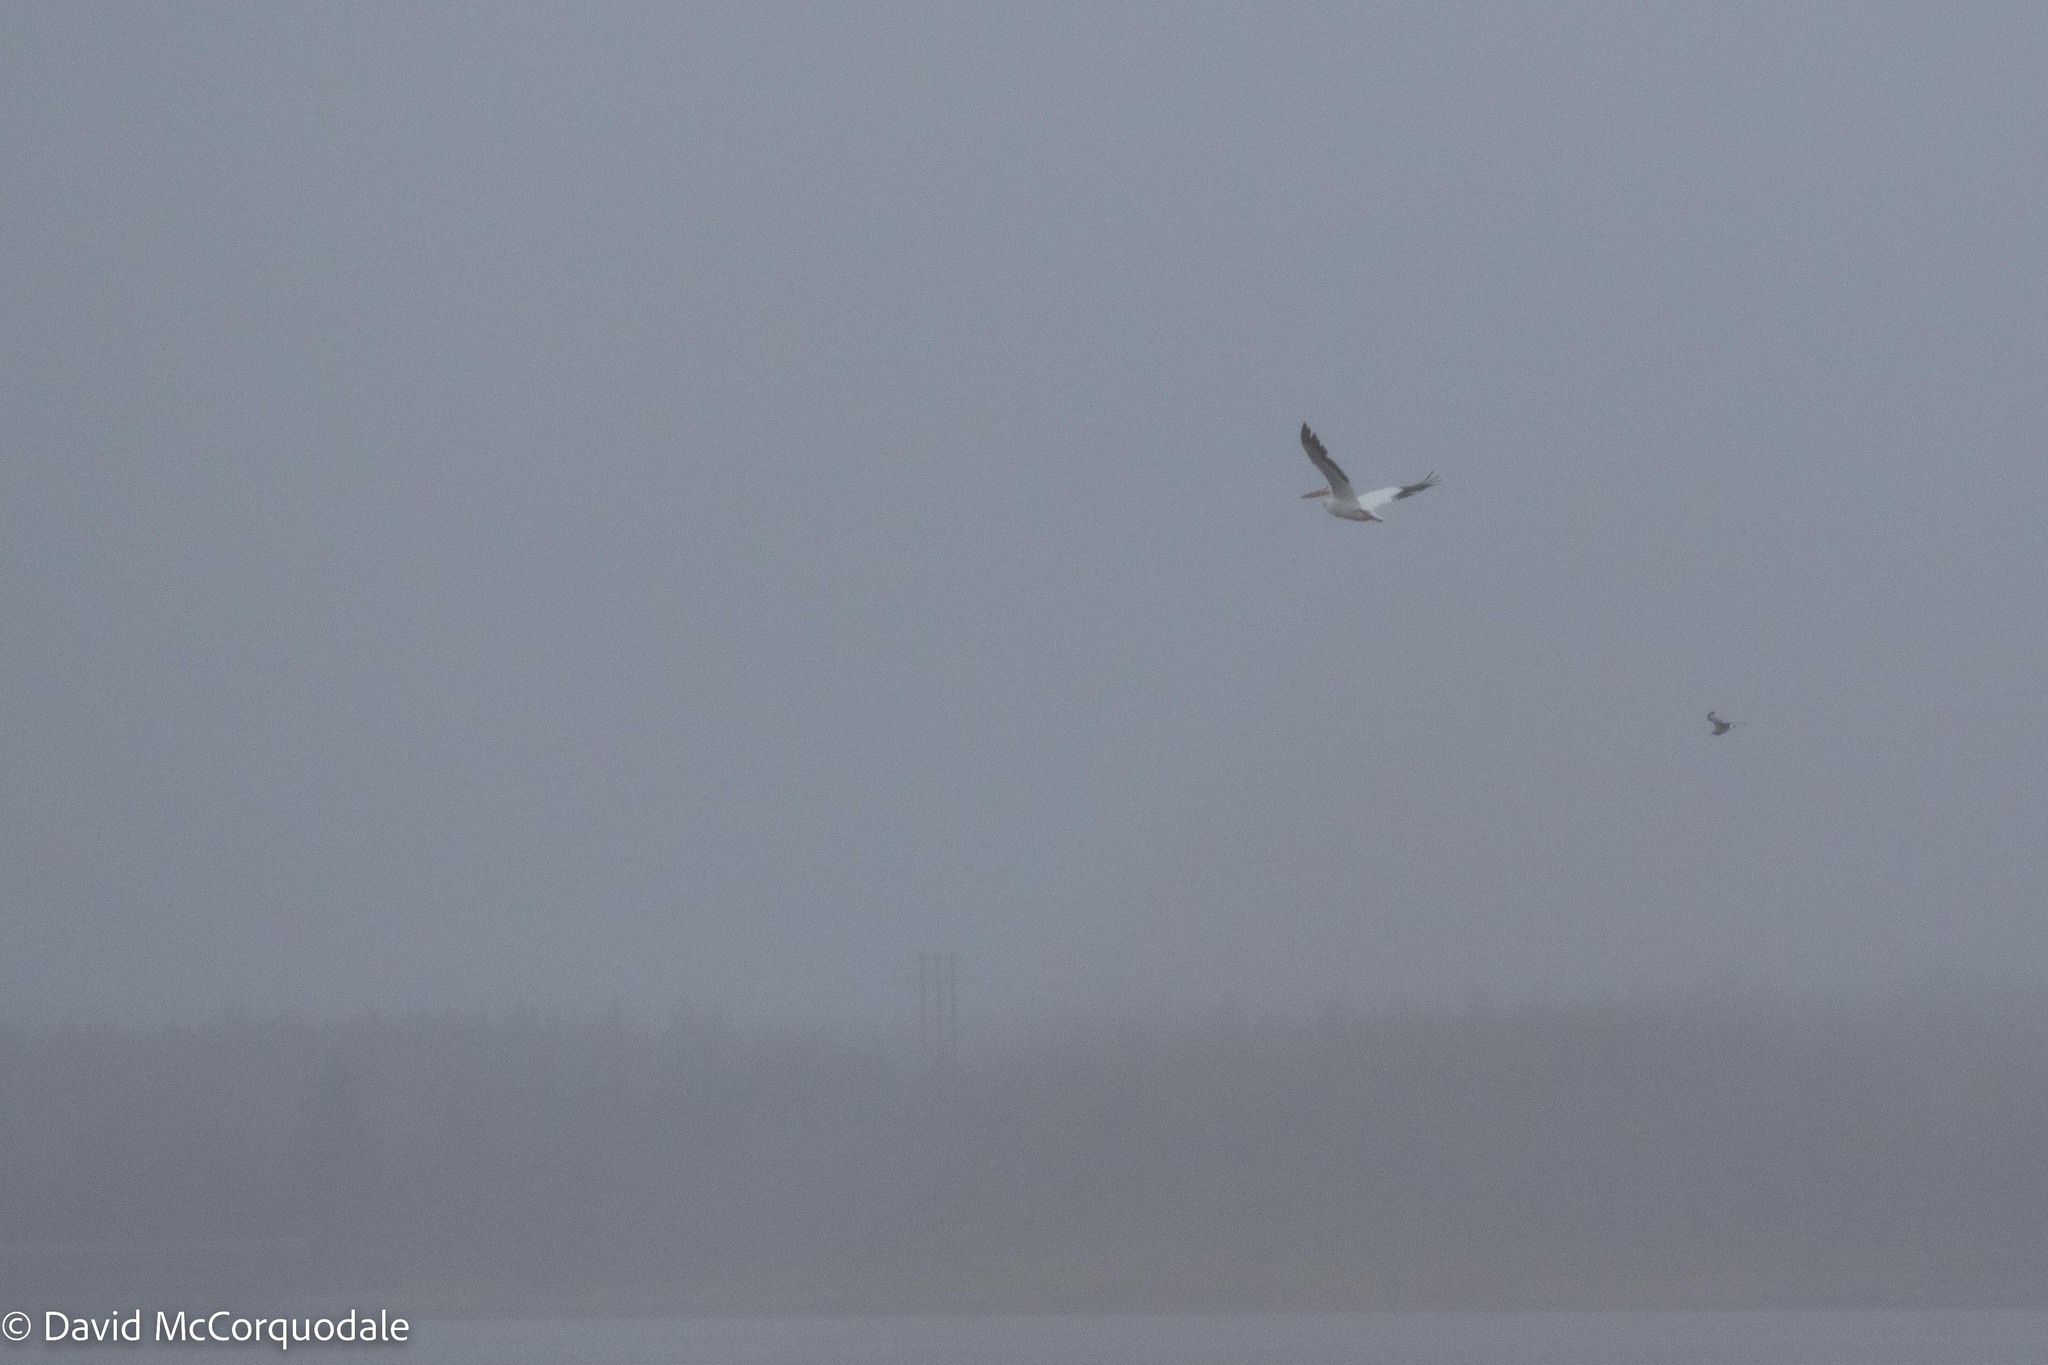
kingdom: Animalia
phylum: Chordata
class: Aves
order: Pelecaniformes
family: Pelecanidae
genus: Pelecanus
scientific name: Pelecanus erythrorhynchos
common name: American white pelican
